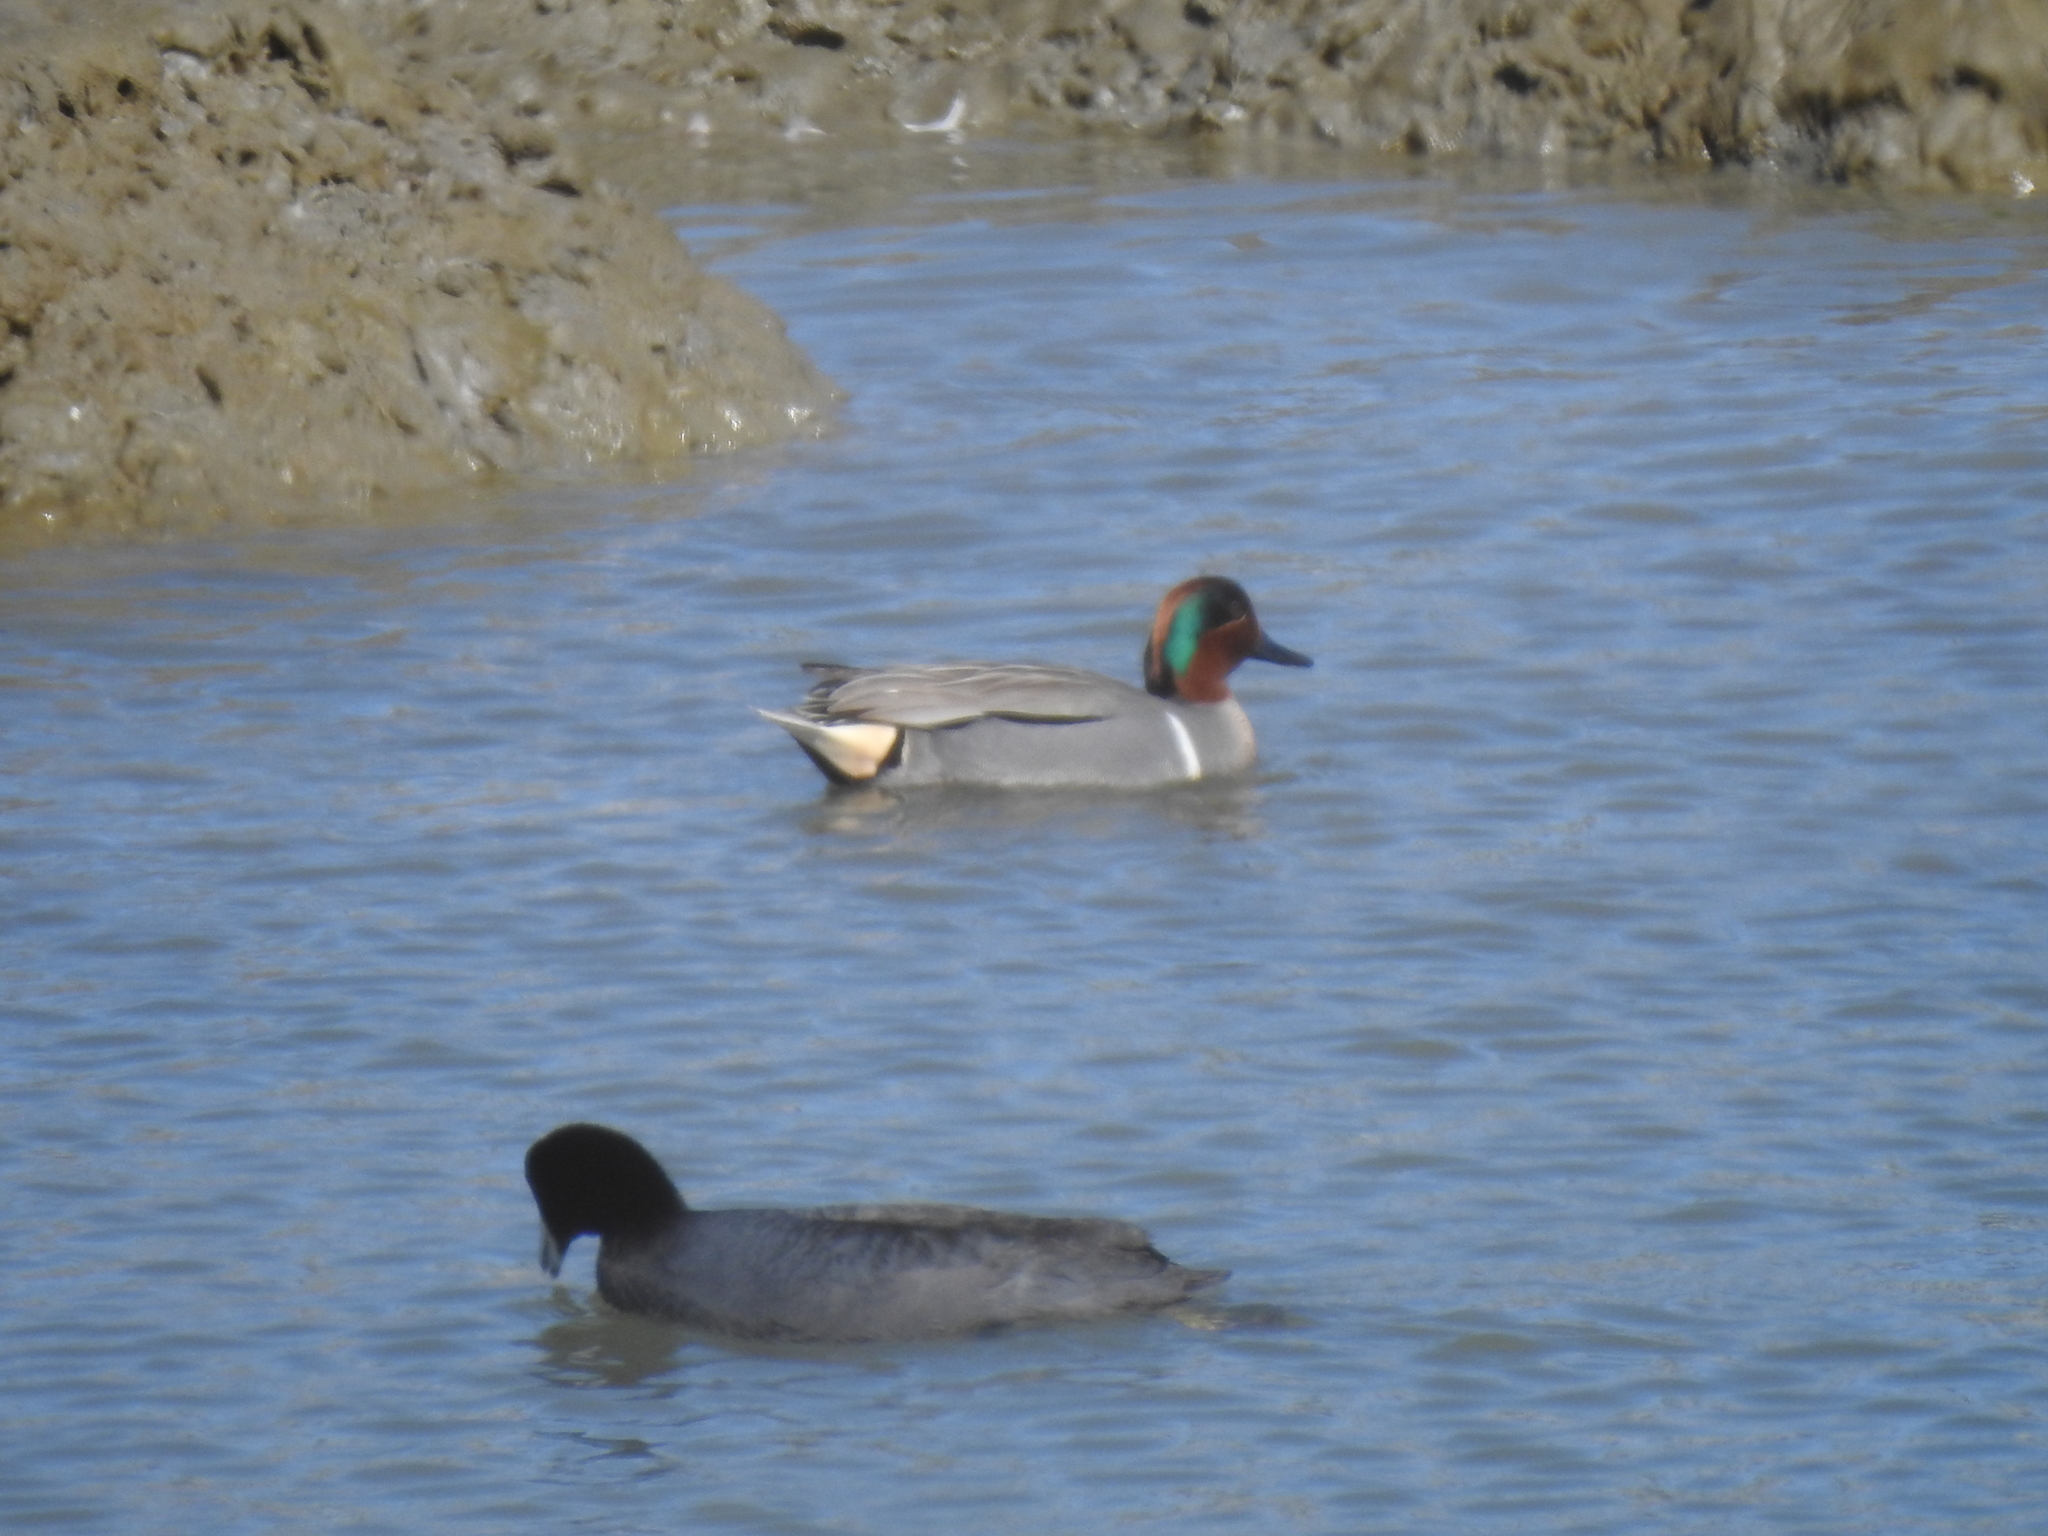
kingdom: Animalia
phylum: Chordata
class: Aves
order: Anseriformes
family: Anatidae
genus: Anas
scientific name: Anas crecca
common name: Eurasian teal
